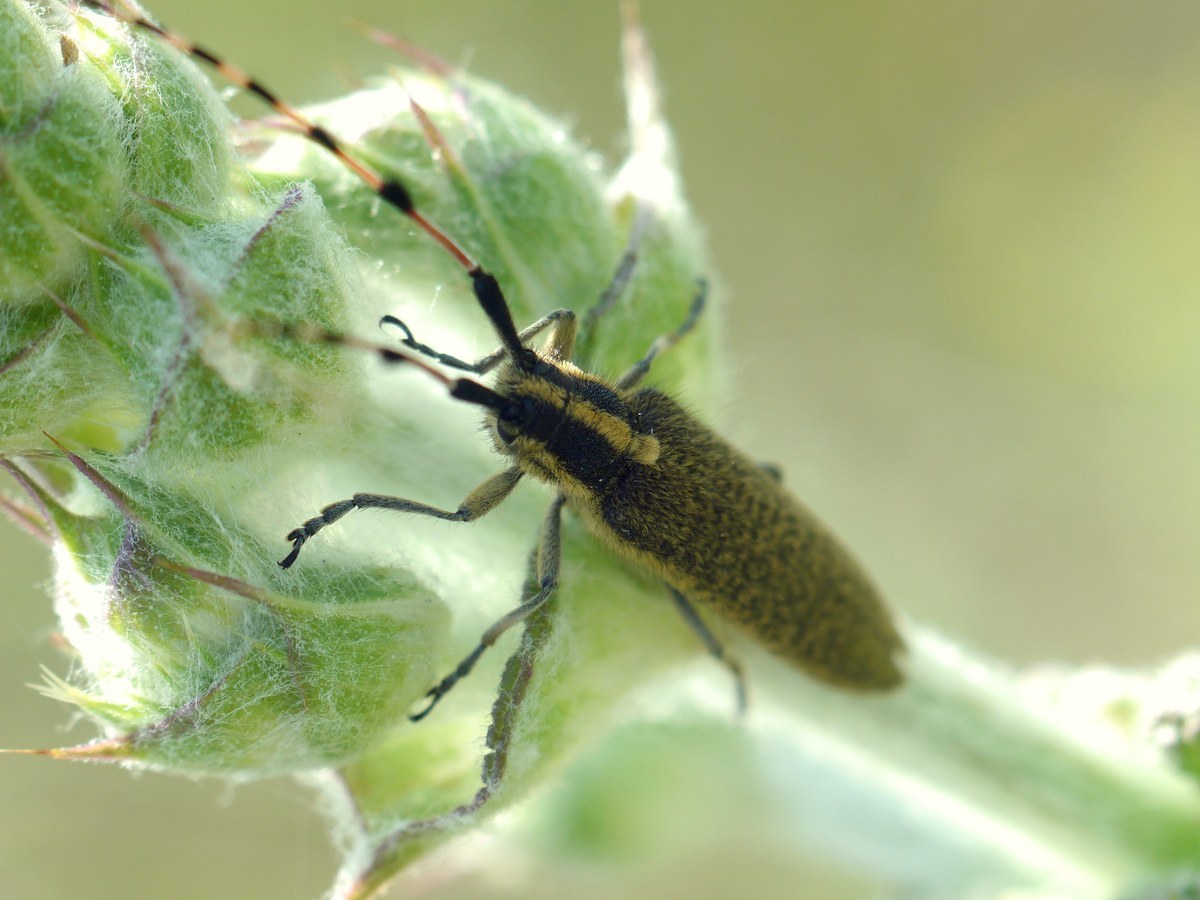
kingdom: Animalia
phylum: Arthropoda
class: Insecta
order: Coleoptera
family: Cerambycidae
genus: Agapanthia
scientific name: Agapanthia dahlii
